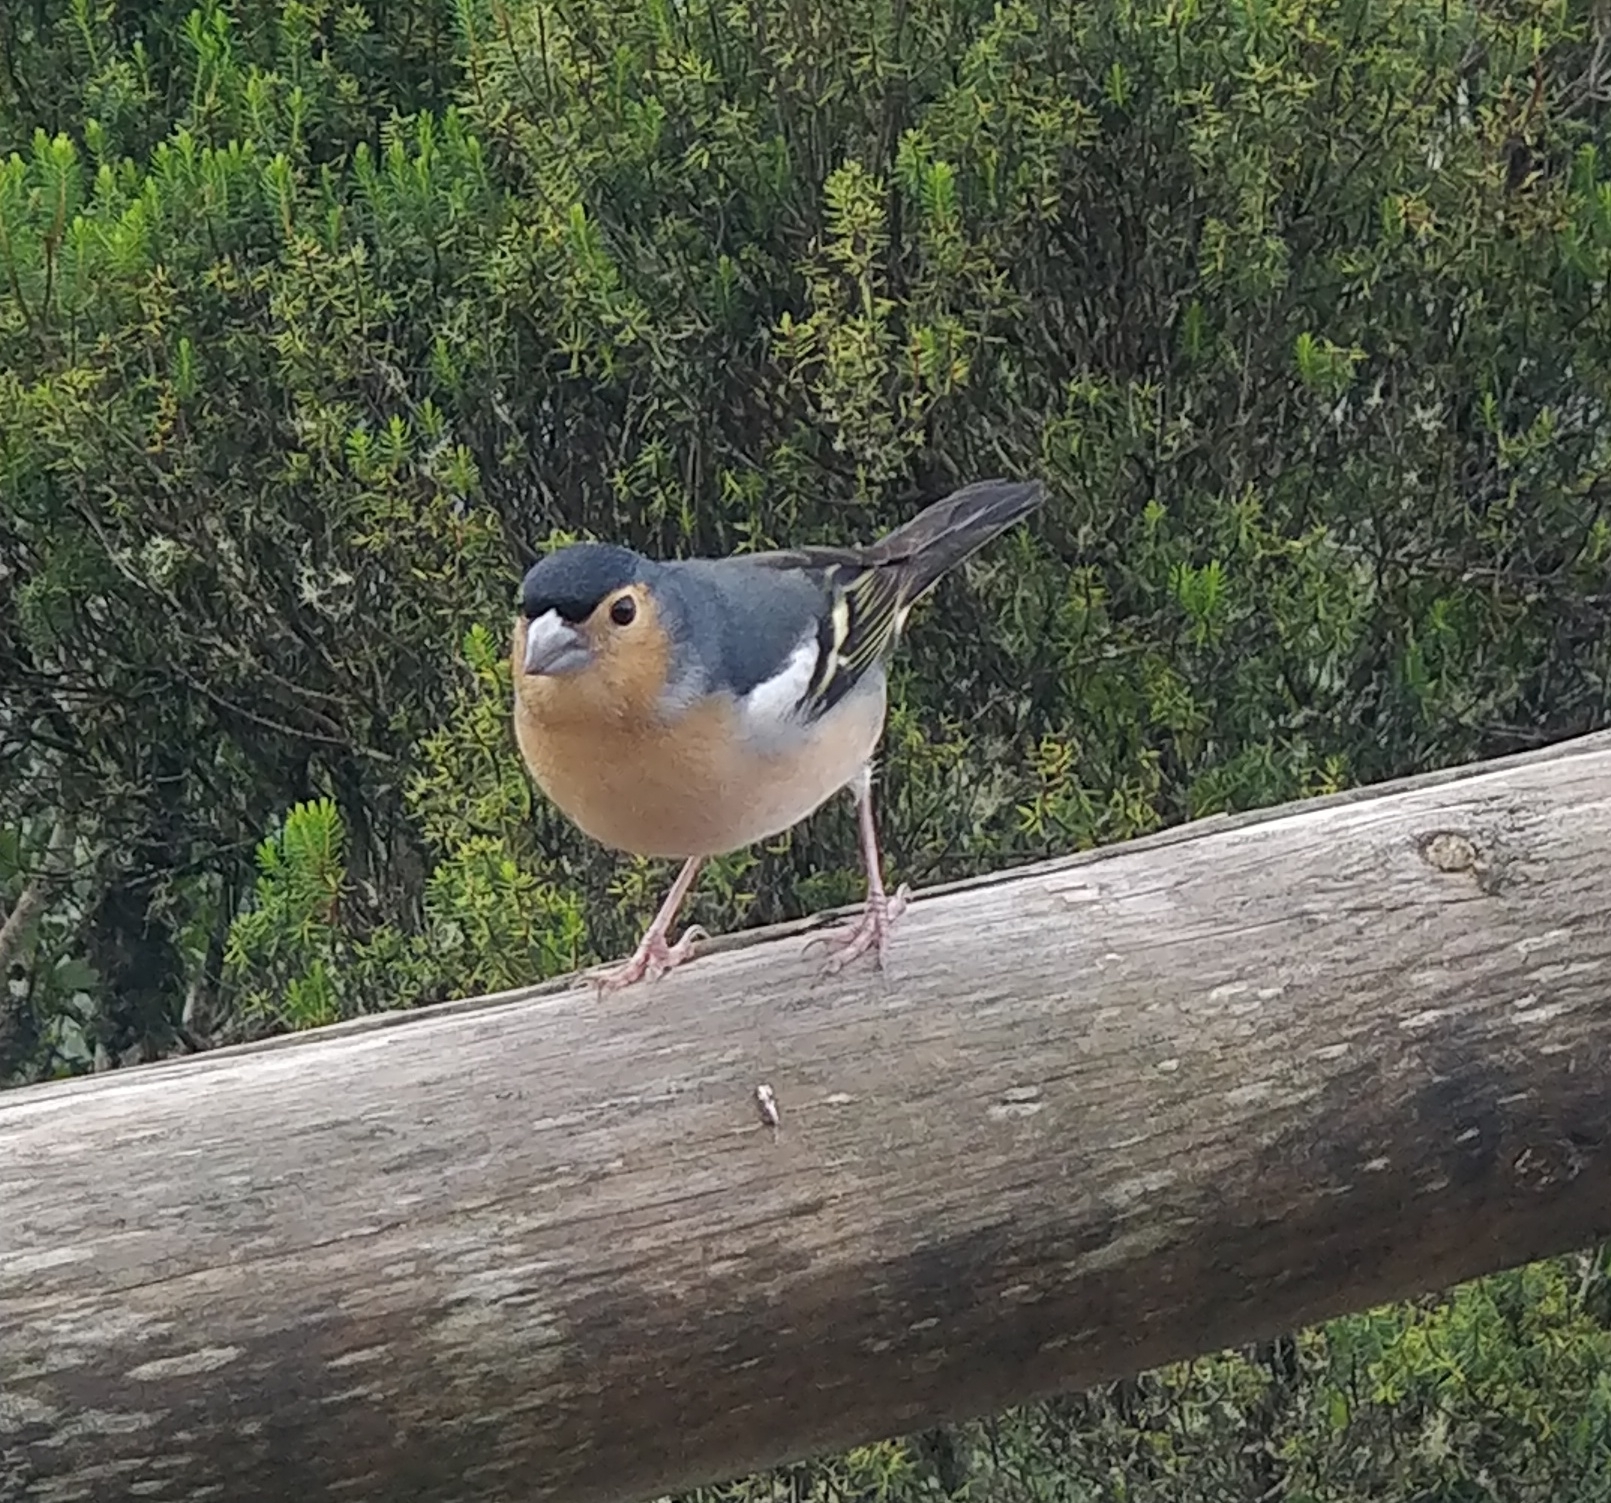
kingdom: Animalia
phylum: Chordata
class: Aves
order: Passeriformes
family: Fringillidae
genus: Fringilla
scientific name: Fringilla canariensis
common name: Canary islands chaffinch
